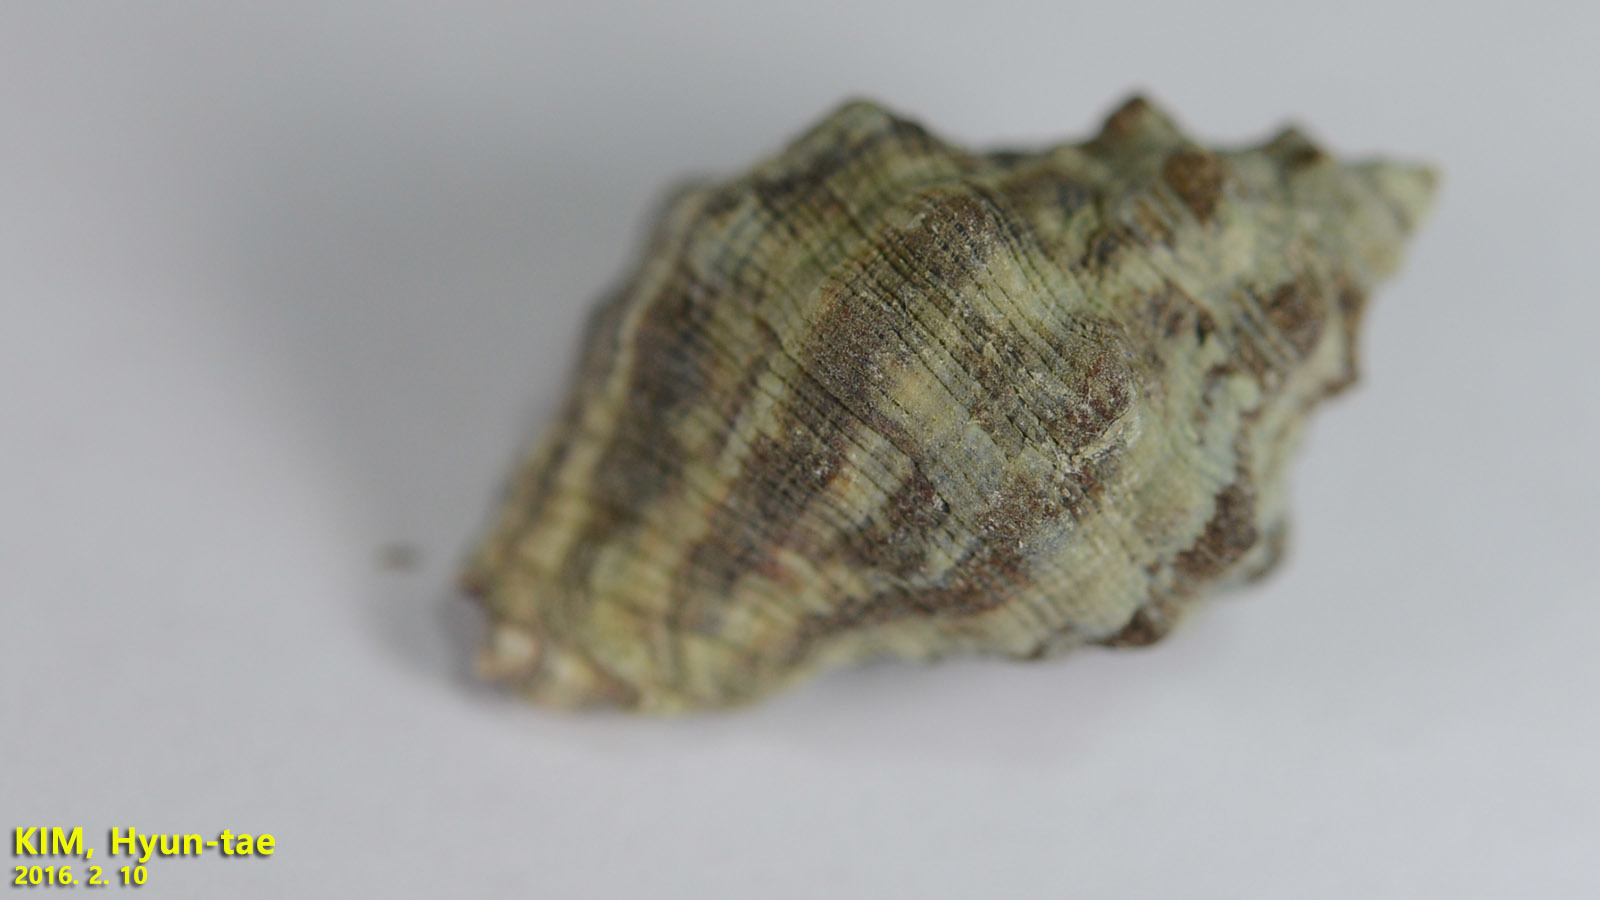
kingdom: Animalia
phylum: Mollusca
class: Gastropoda
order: Neogastropoda
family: Muricidae
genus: Reishia
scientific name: Reishia clavigera
